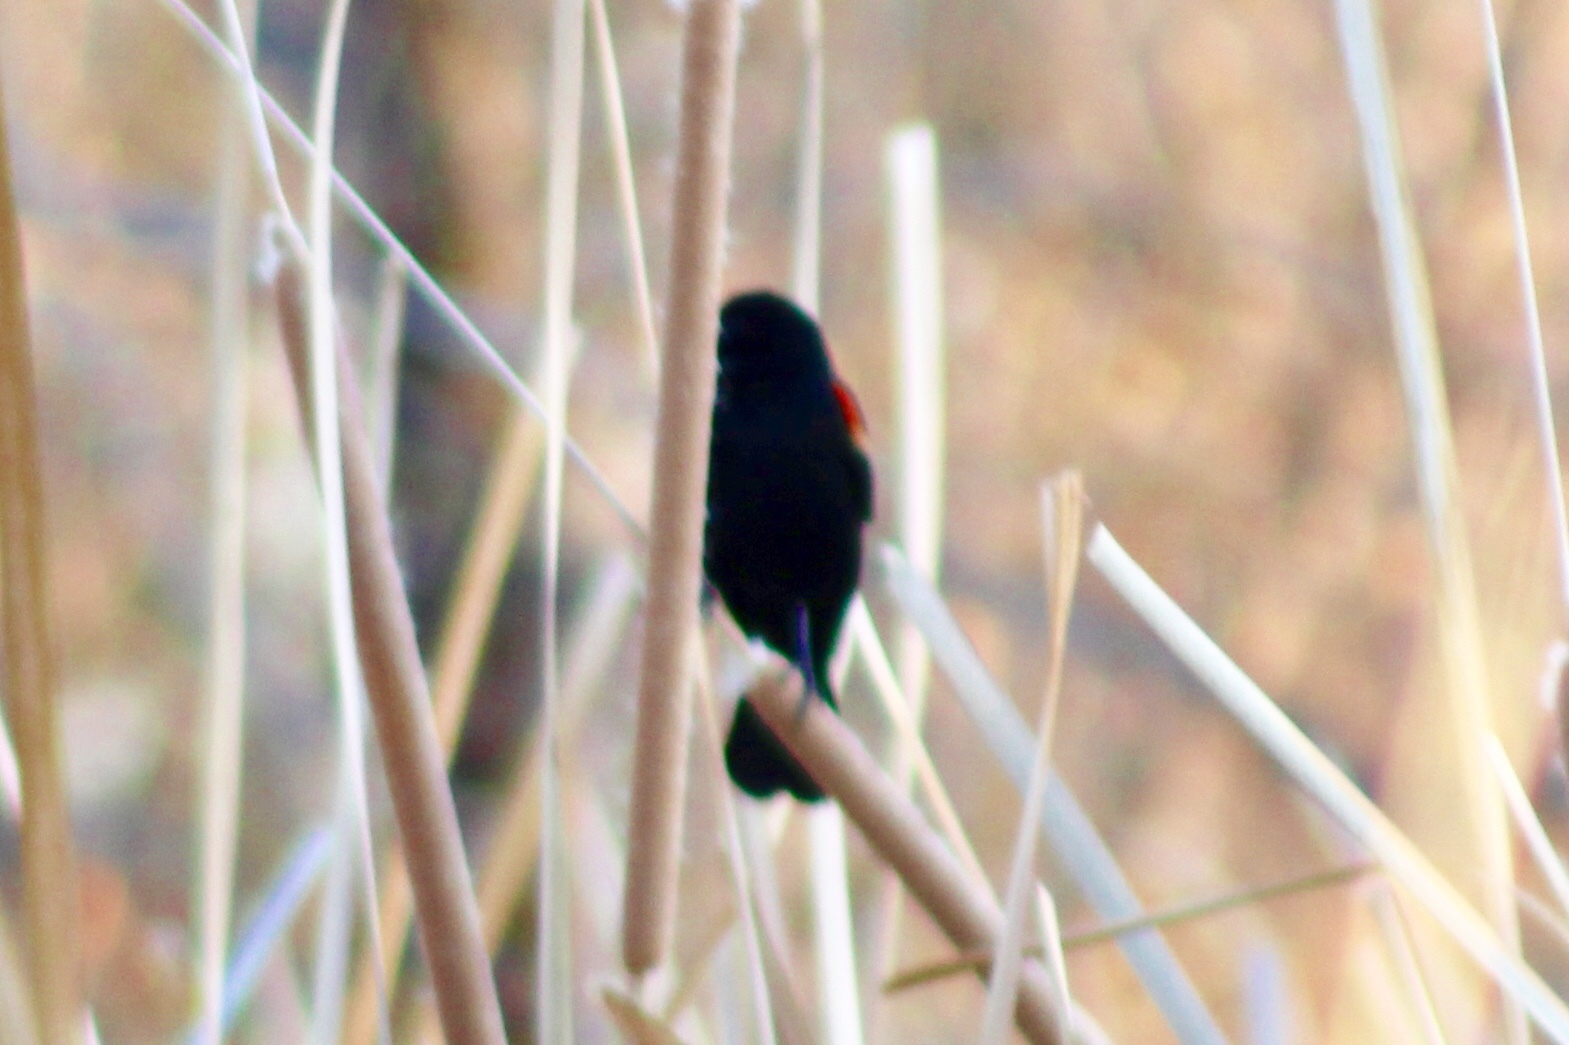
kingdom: Animalia
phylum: Chordata
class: Aves
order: Passeriformes
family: Icteridae
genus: Agelaius
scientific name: Agelaius phoeniceus
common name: Red-winged blackbird
